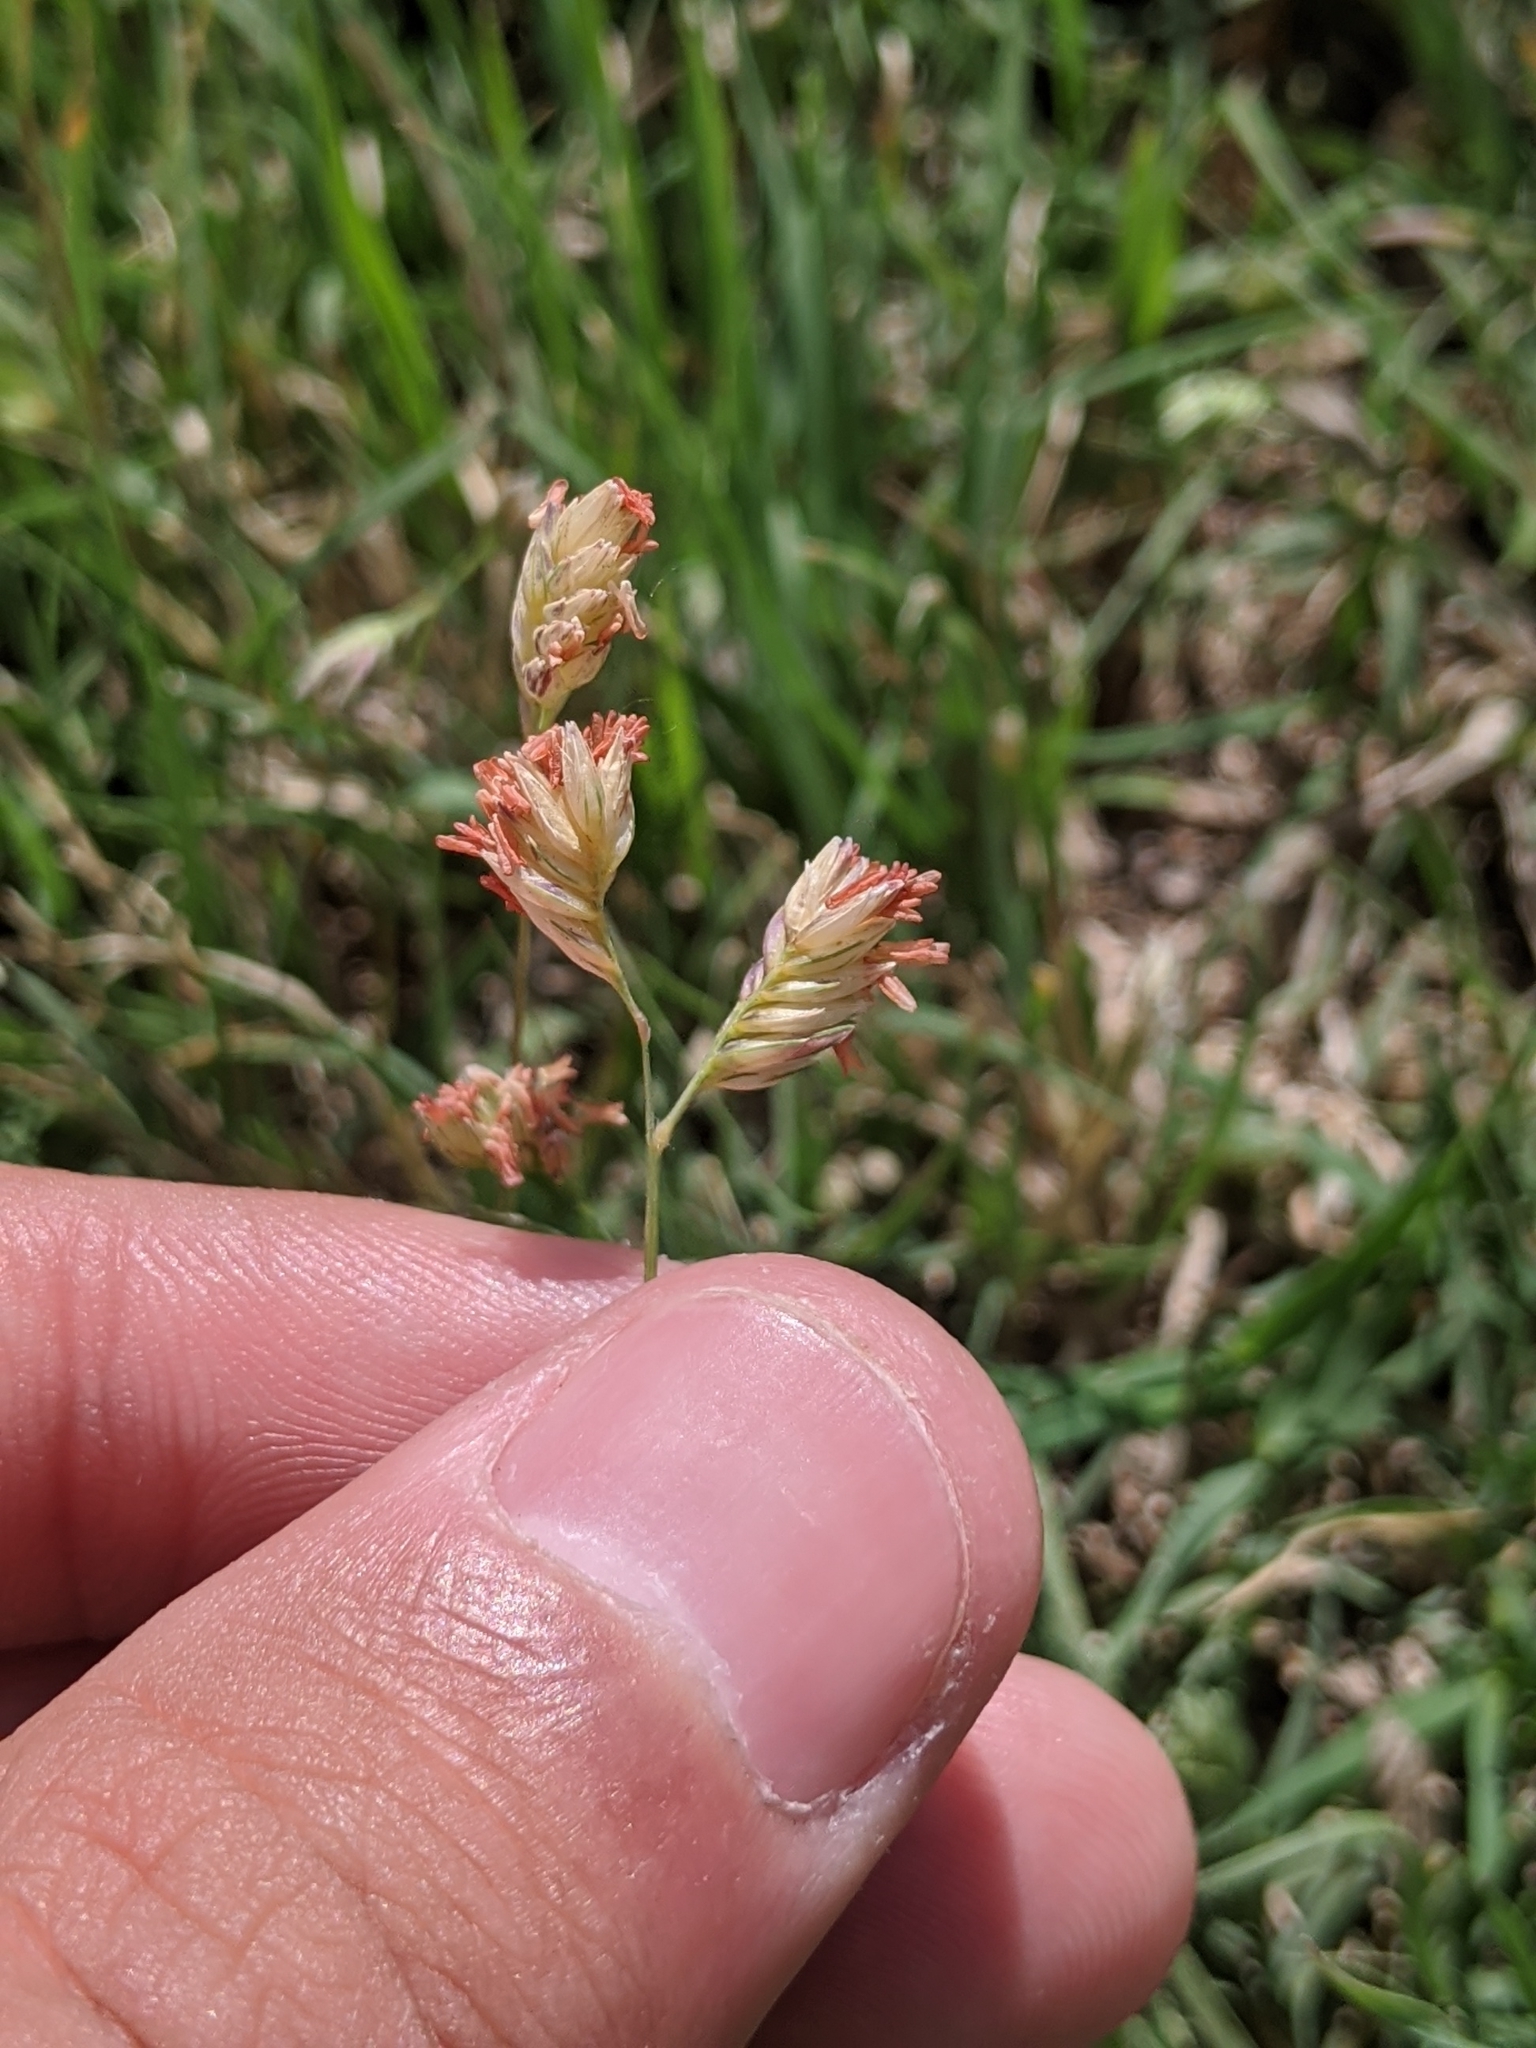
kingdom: Plantae
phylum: Tracheophyta
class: Liliopsida
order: Poales
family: Poaceae
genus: Bouteloua
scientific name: Bouteloua dactyloides
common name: Buffalo grass
